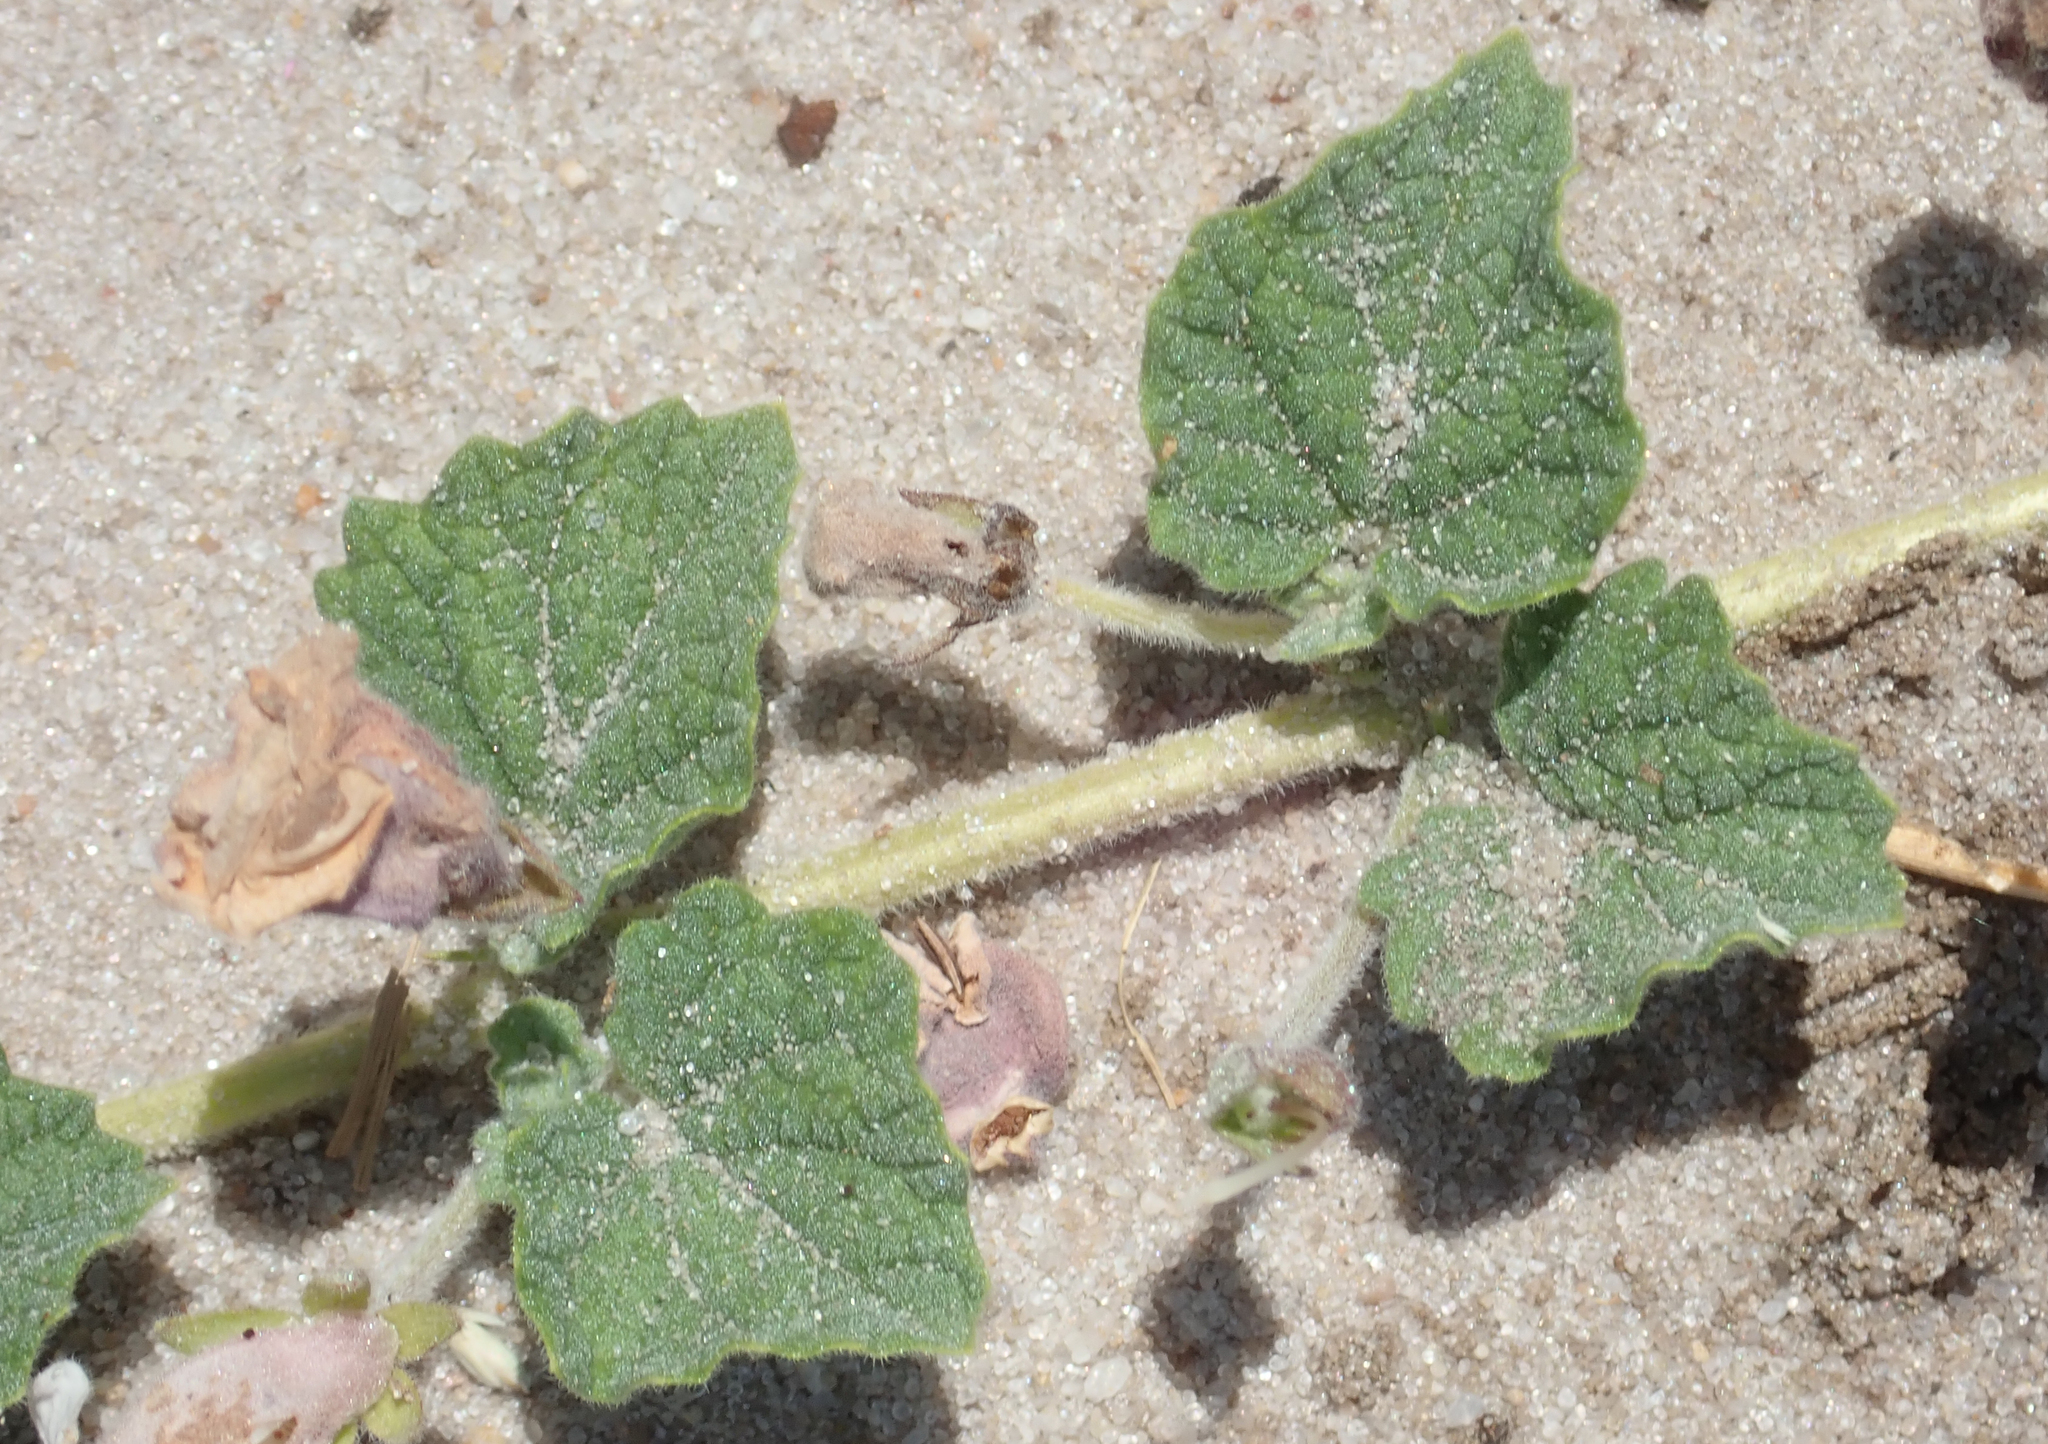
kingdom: Plantae
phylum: Tracheophyta
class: Magnoliopsida
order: Lamiales
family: Pedaliaceae
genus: Dicerocaryum
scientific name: Dicerocaryum eriocarpum
